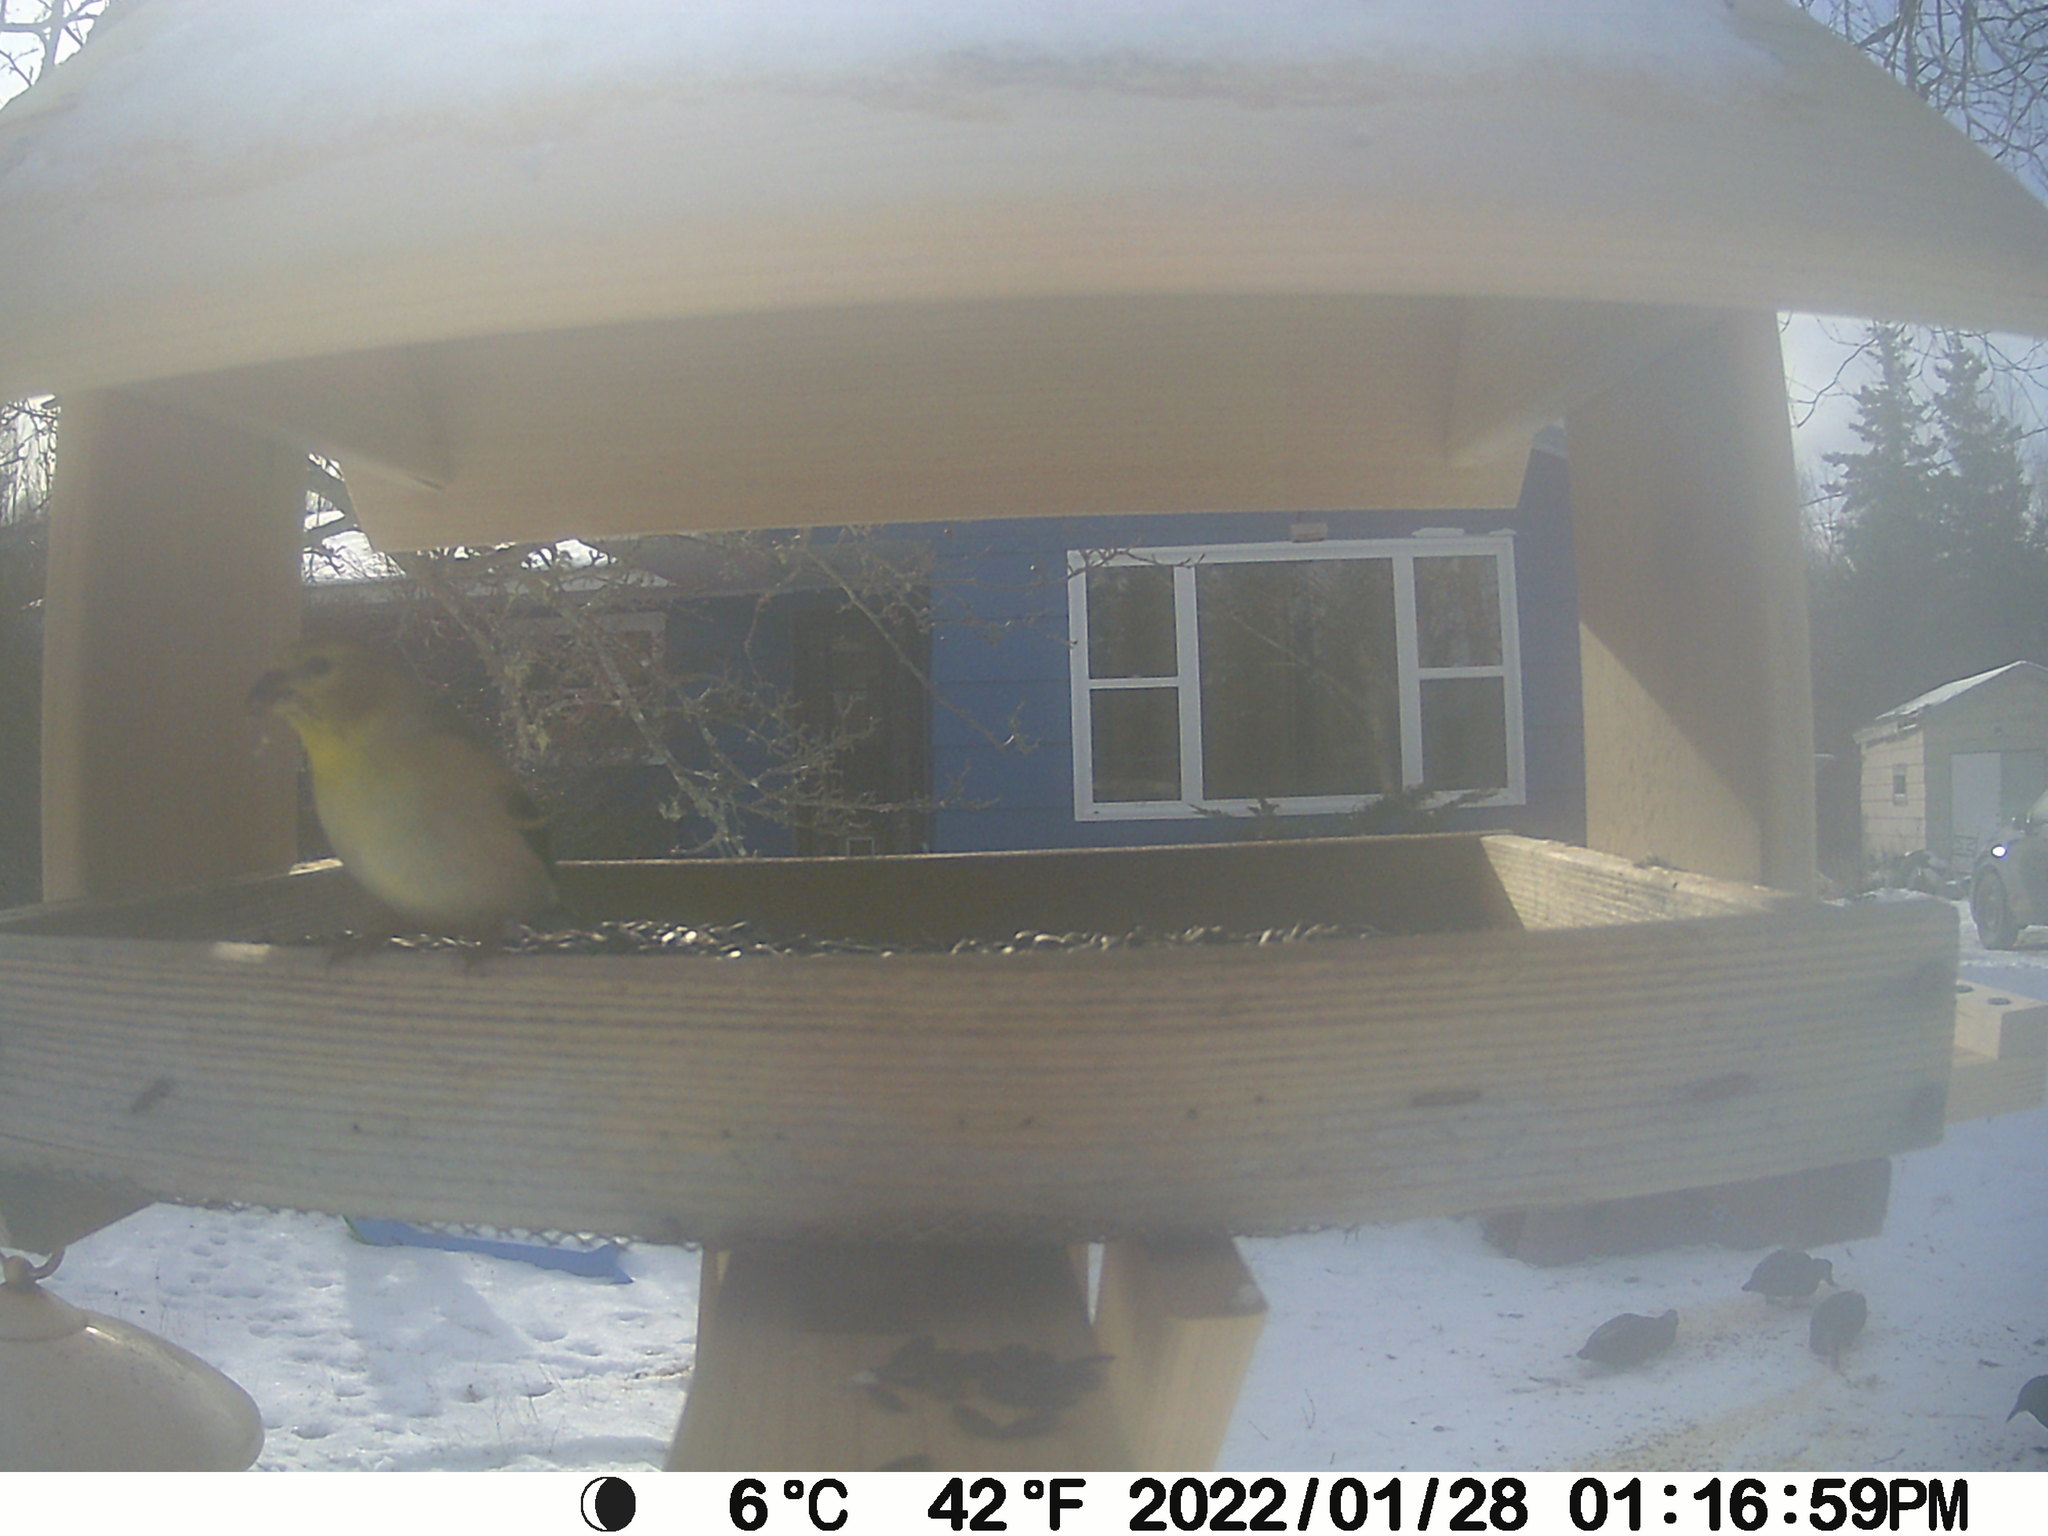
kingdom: Animalia
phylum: Chordata
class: Aves
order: Passeriformes
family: Fringillidae
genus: Spinus
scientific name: Spinus tristis
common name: American goldfinch
